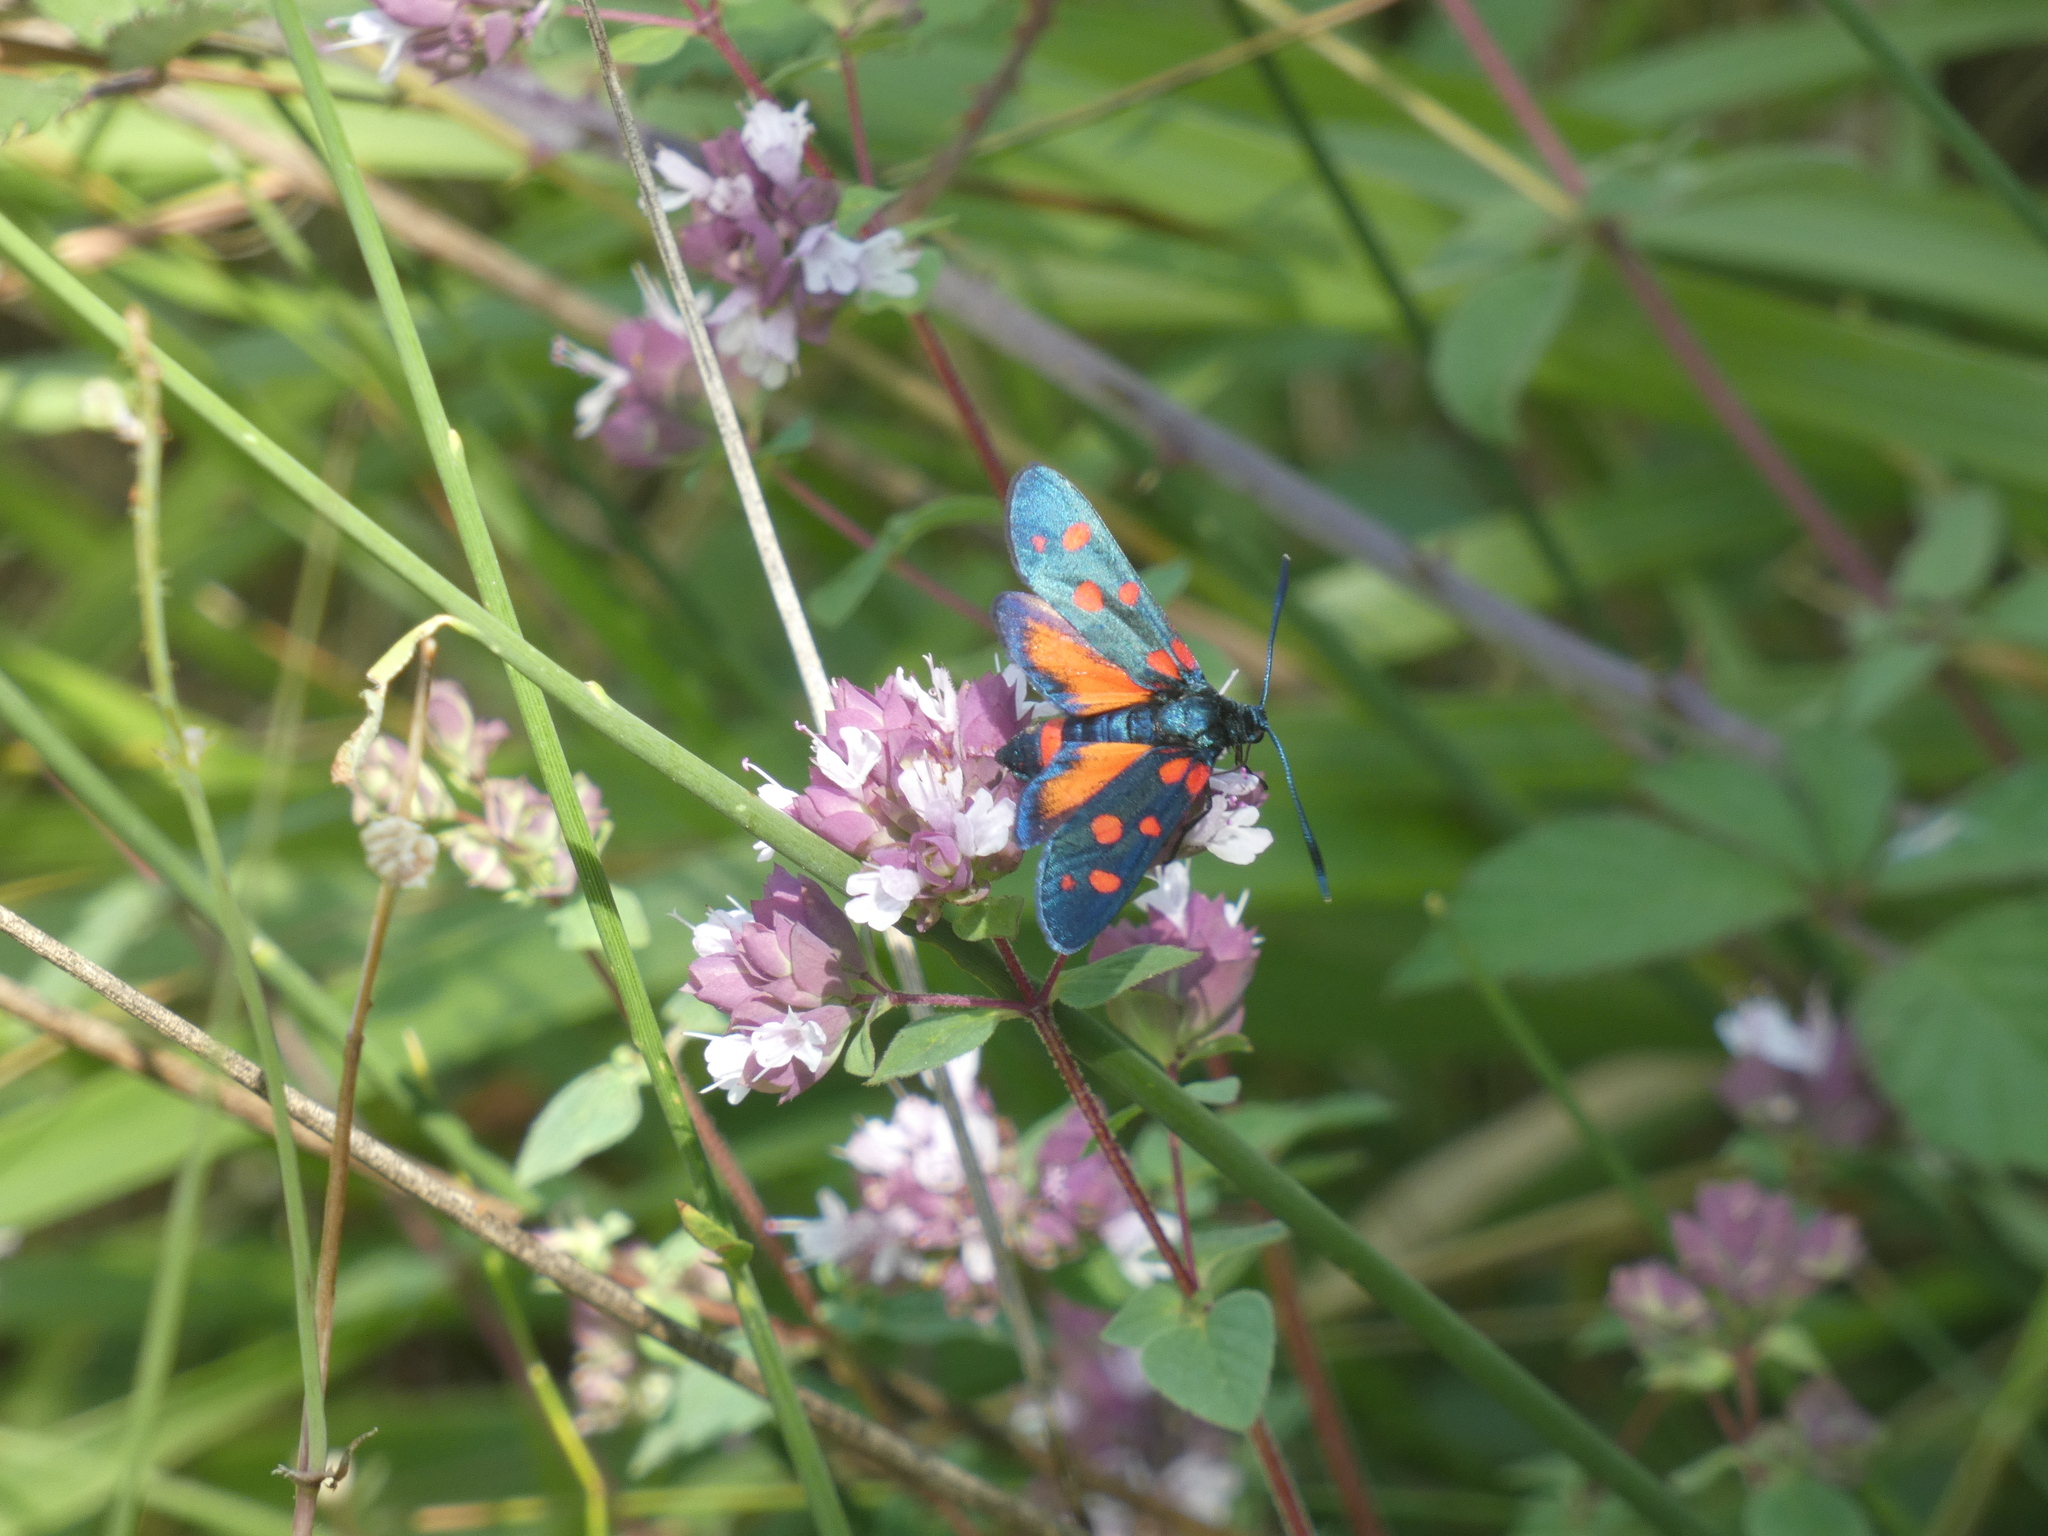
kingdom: Animalia
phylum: Arthropoda
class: Insecta
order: Lepidoptera
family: Zygaenidae
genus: Zygaena
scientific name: Zygaena ephialtes
